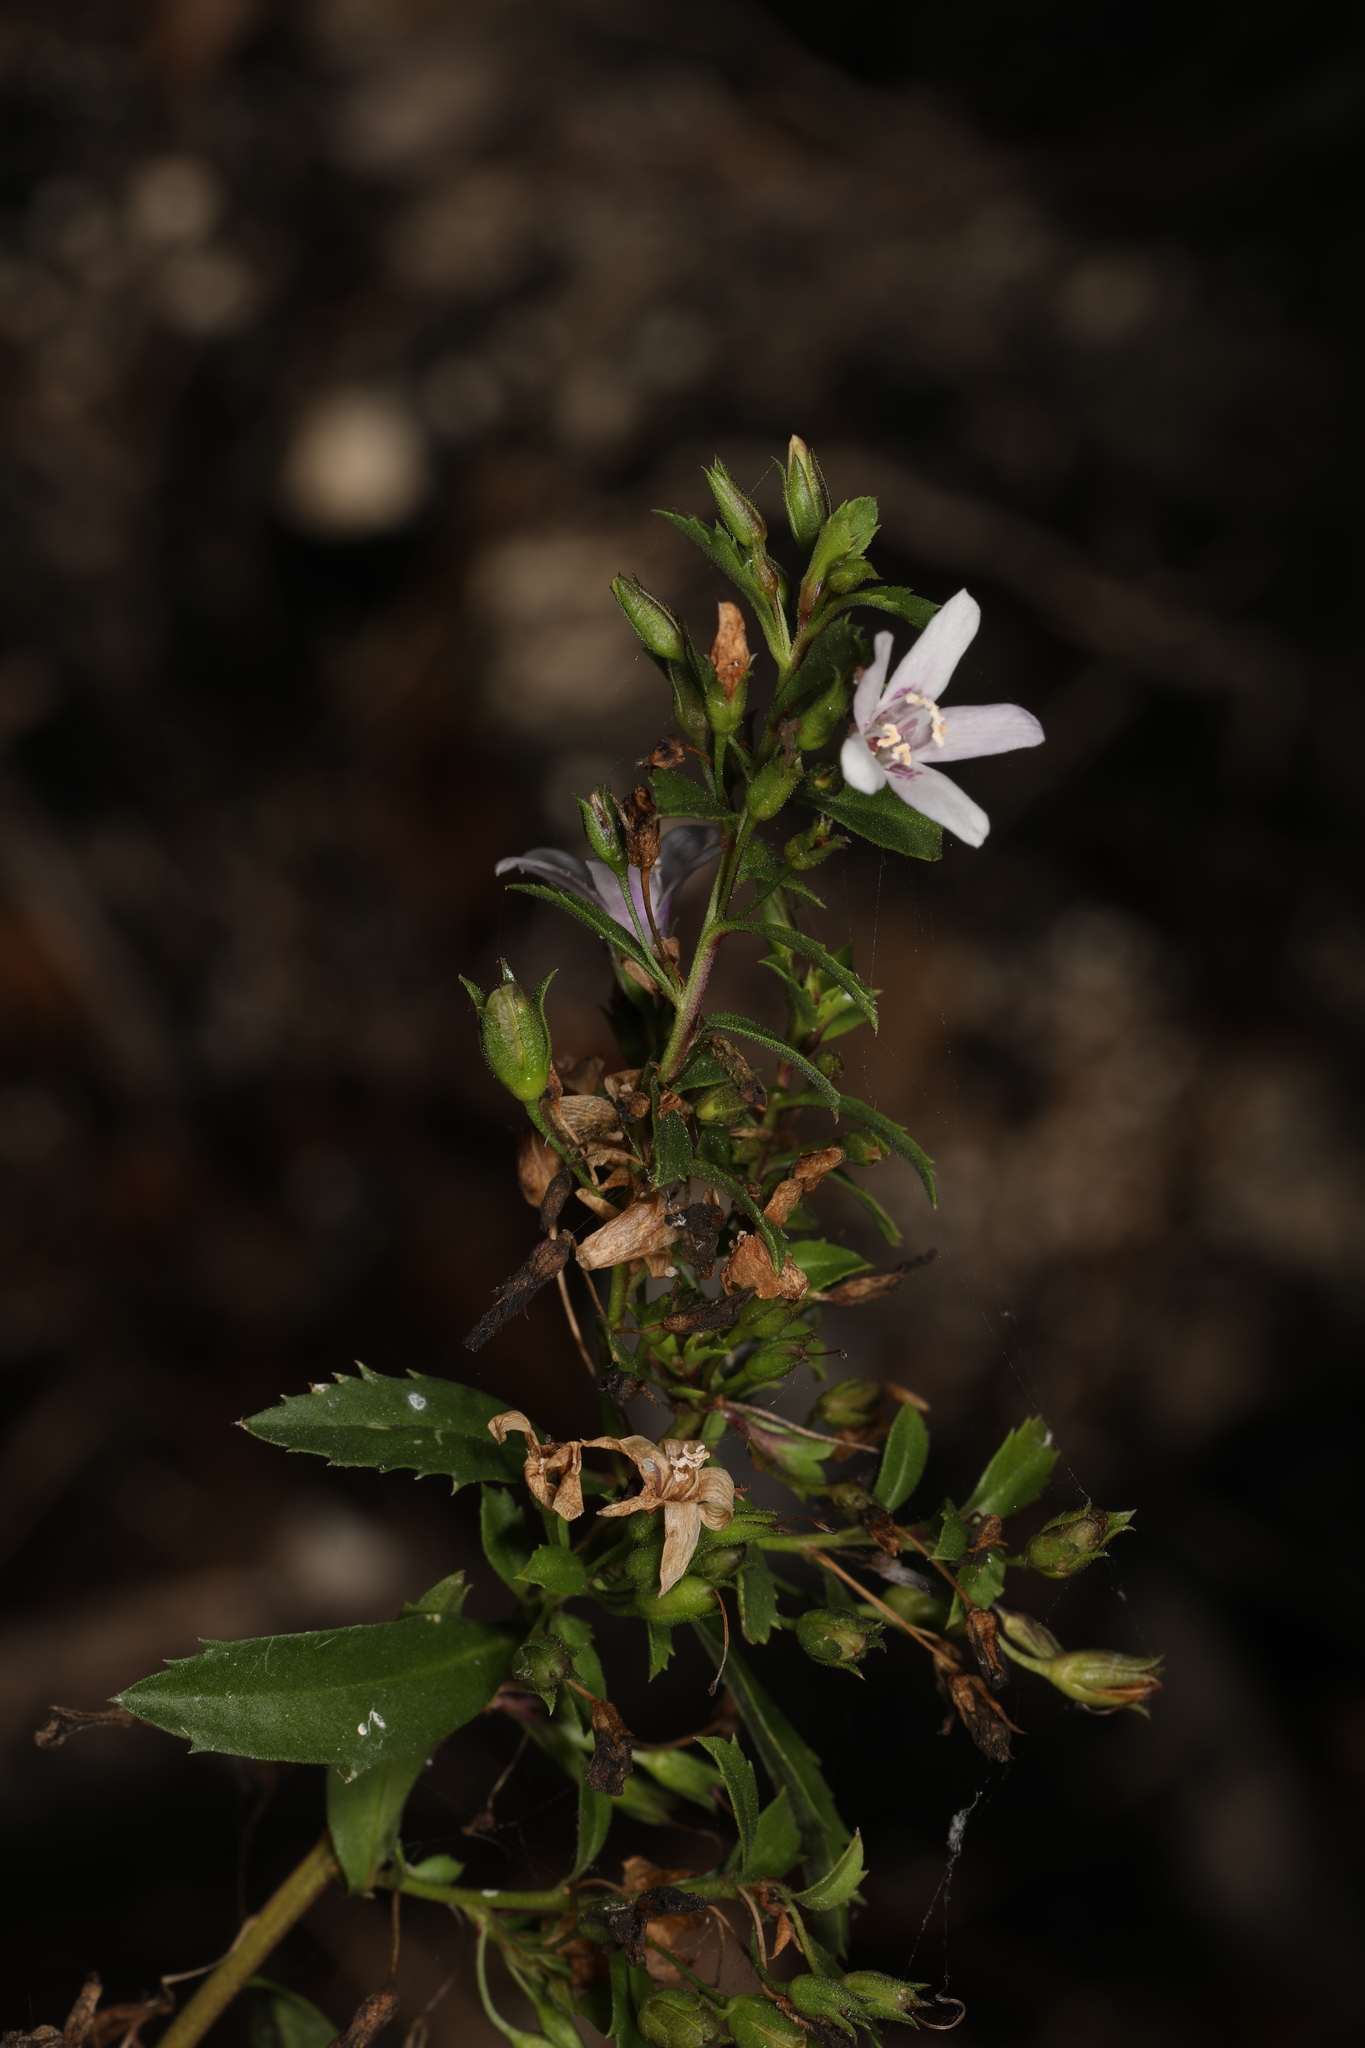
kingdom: Plantae
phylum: Tracheophyta
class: Magnoliopsida
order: Lamiales
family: Scrophulariaceae
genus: Capraria
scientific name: Capraria biflora
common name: Goatweed
